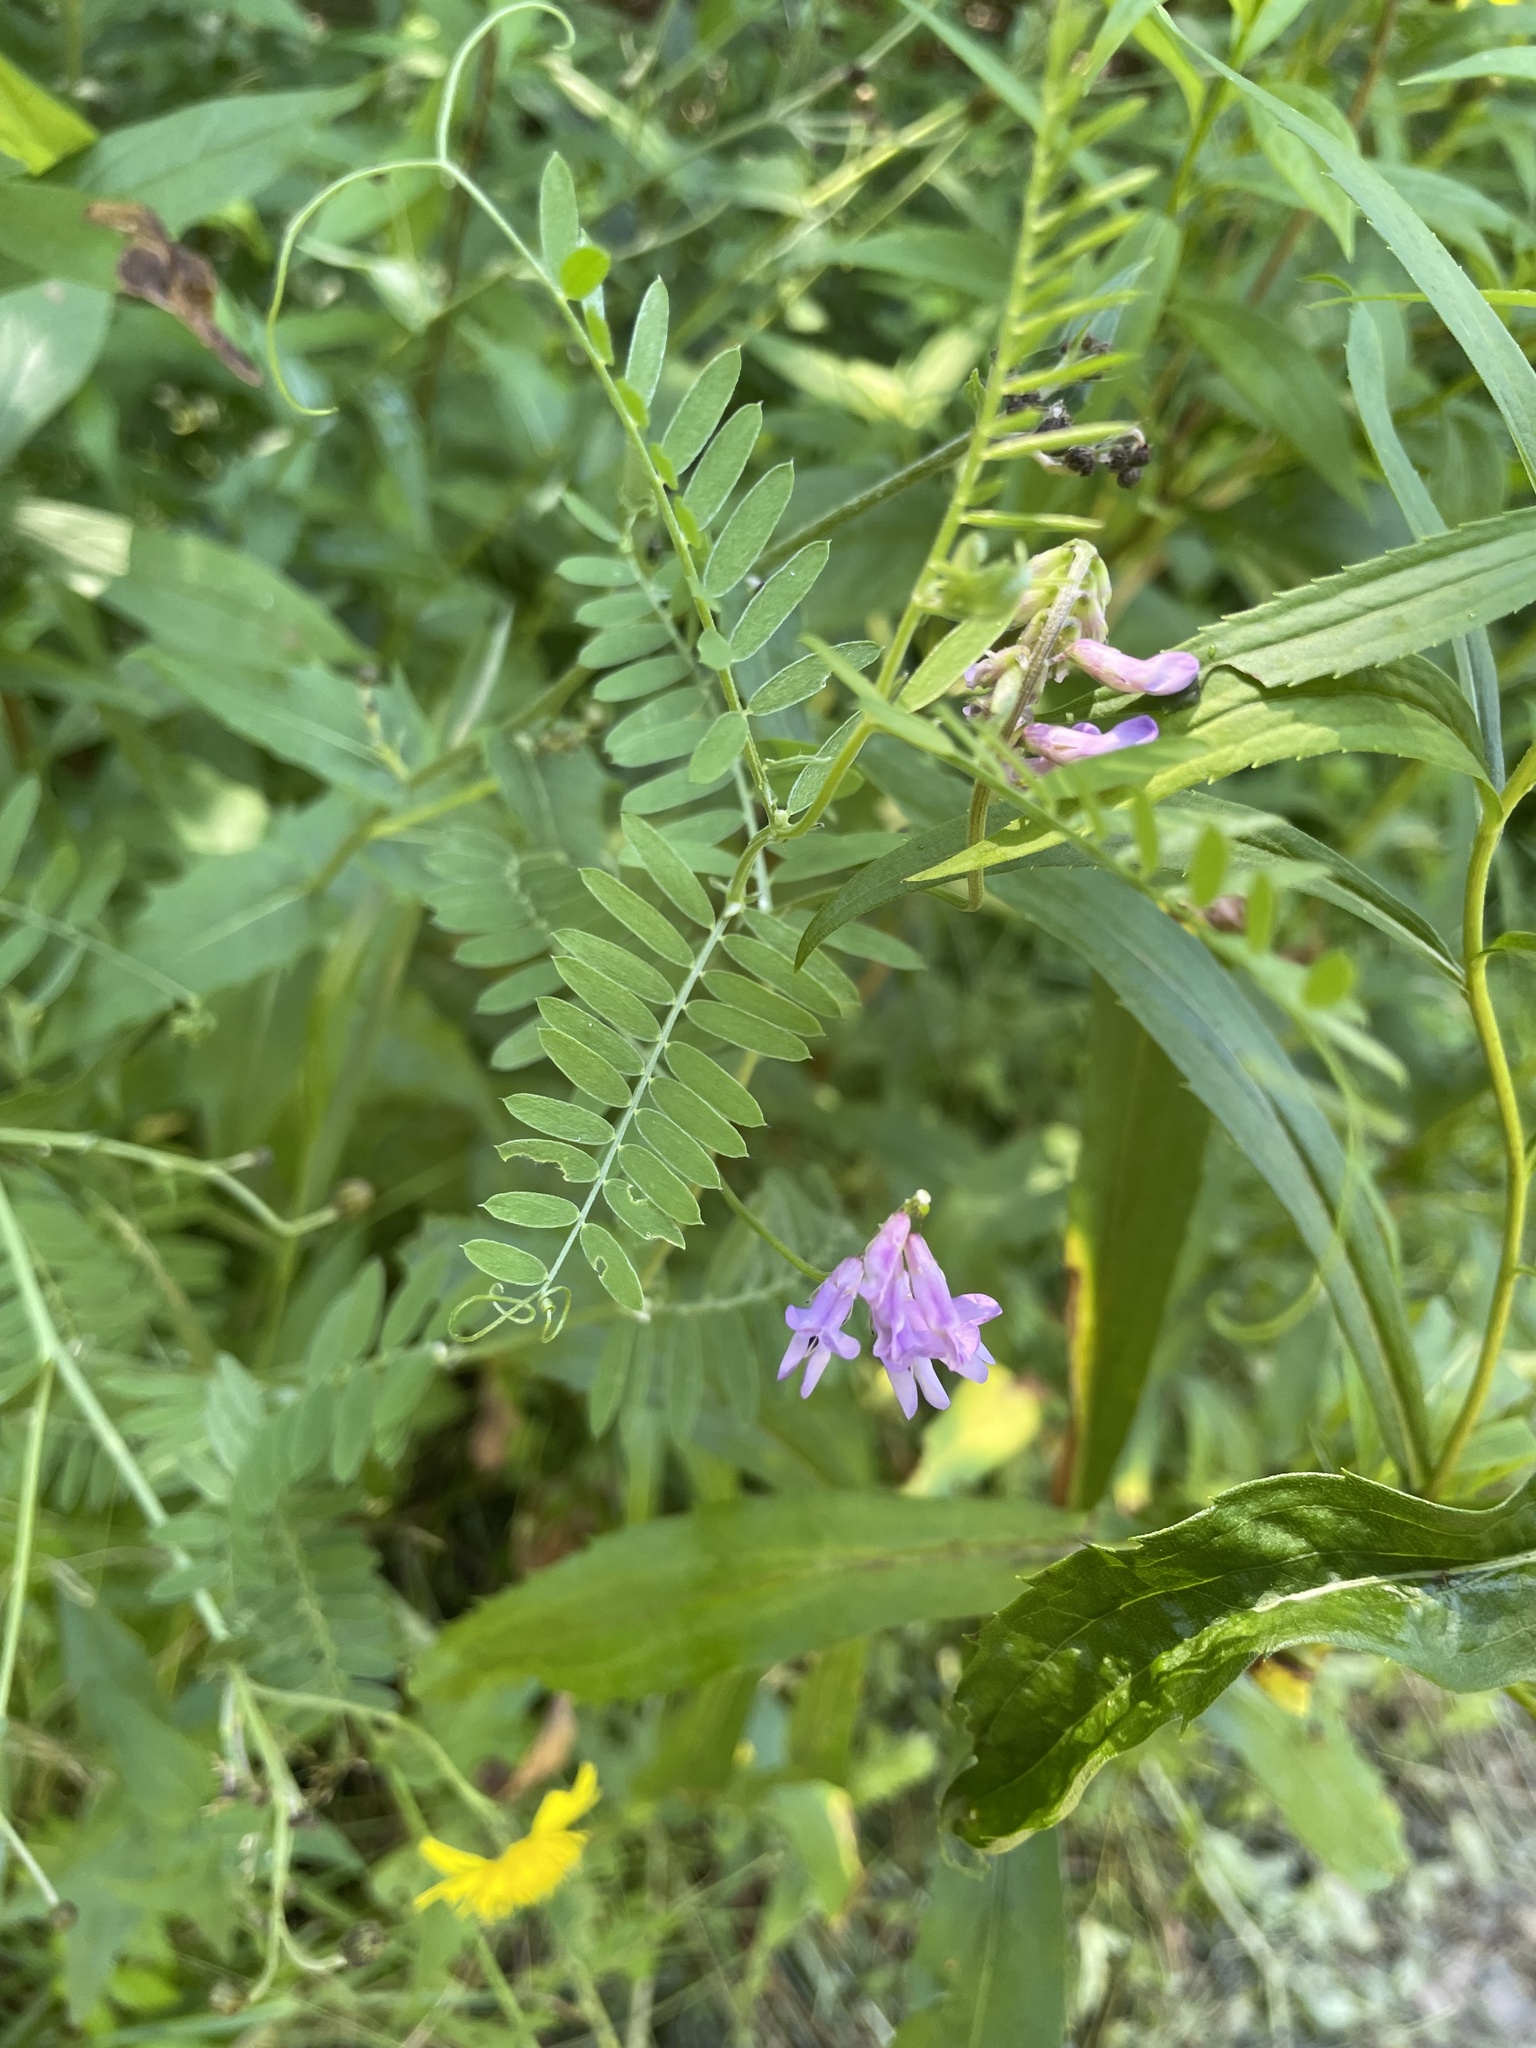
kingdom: Plantae
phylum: Tracheophyta
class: Magnoliopsida
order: Fabales
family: Fabaceae
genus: Vicia
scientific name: Vicia cracca
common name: Bird vetch
